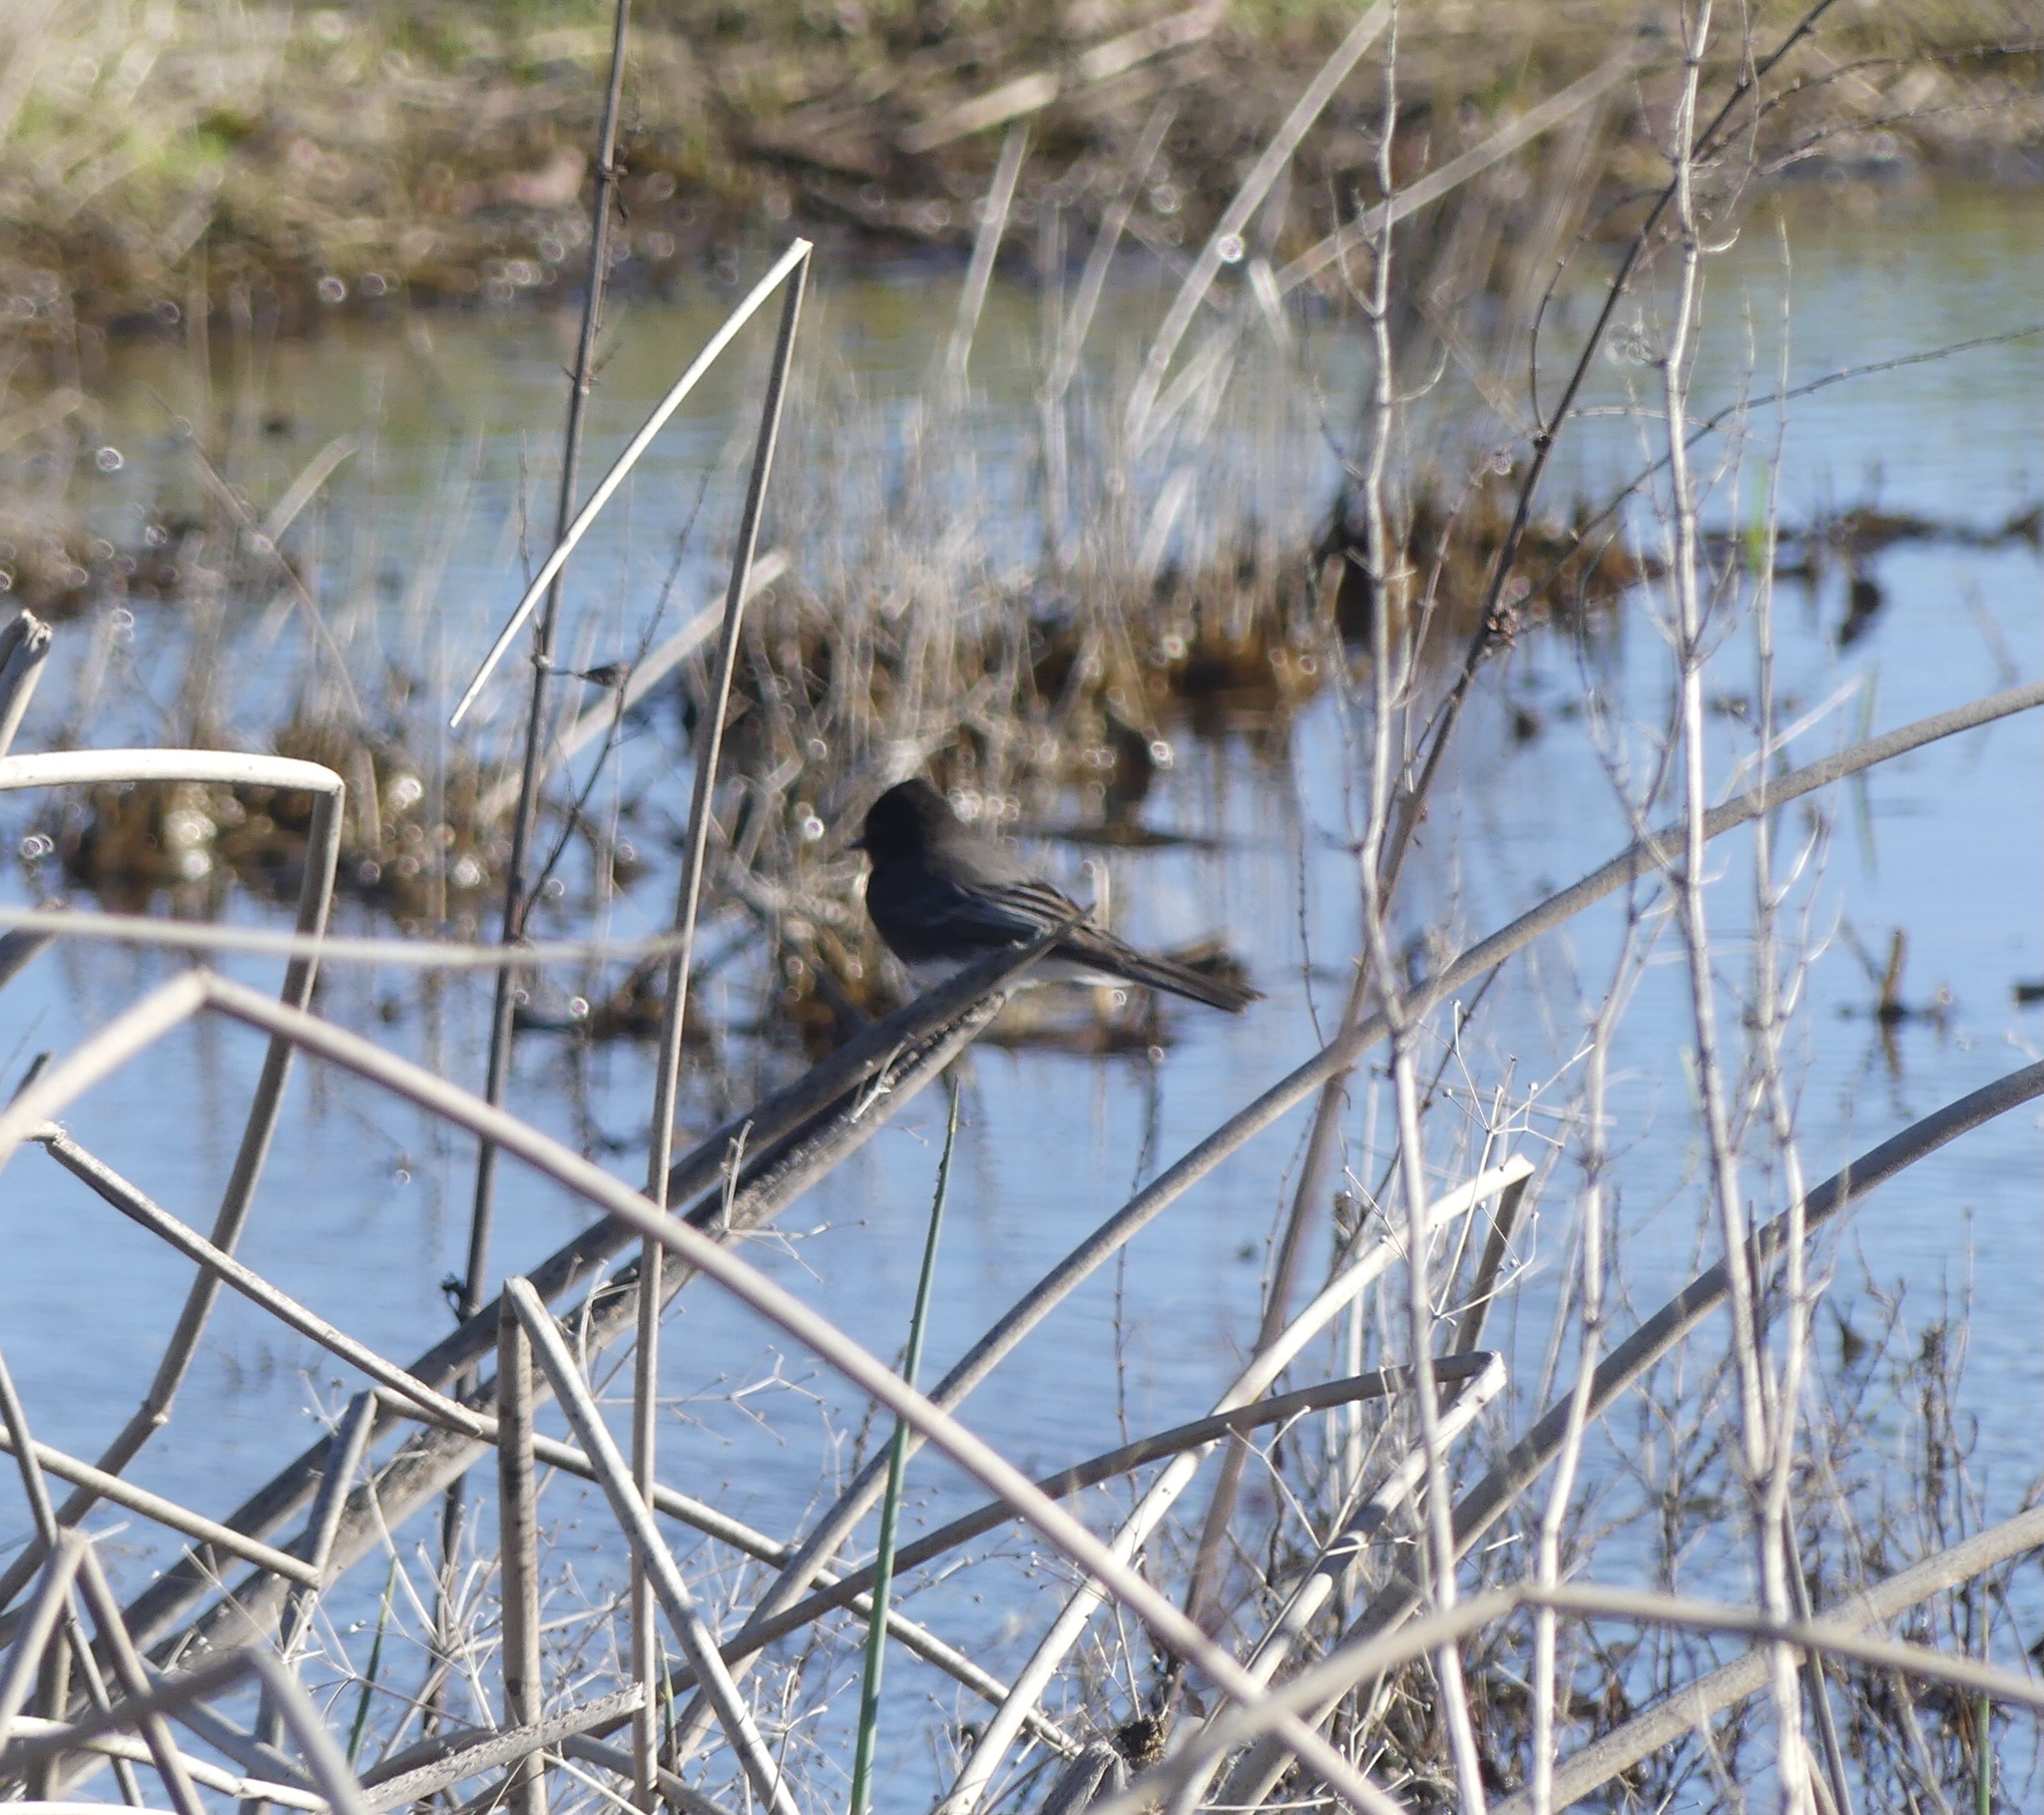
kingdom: Animalia
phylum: Chordata
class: Aves
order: Passeriformes
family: Tyrannidae
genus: Sayornis
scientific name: Sayornis nigricans
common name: Black phoebe
